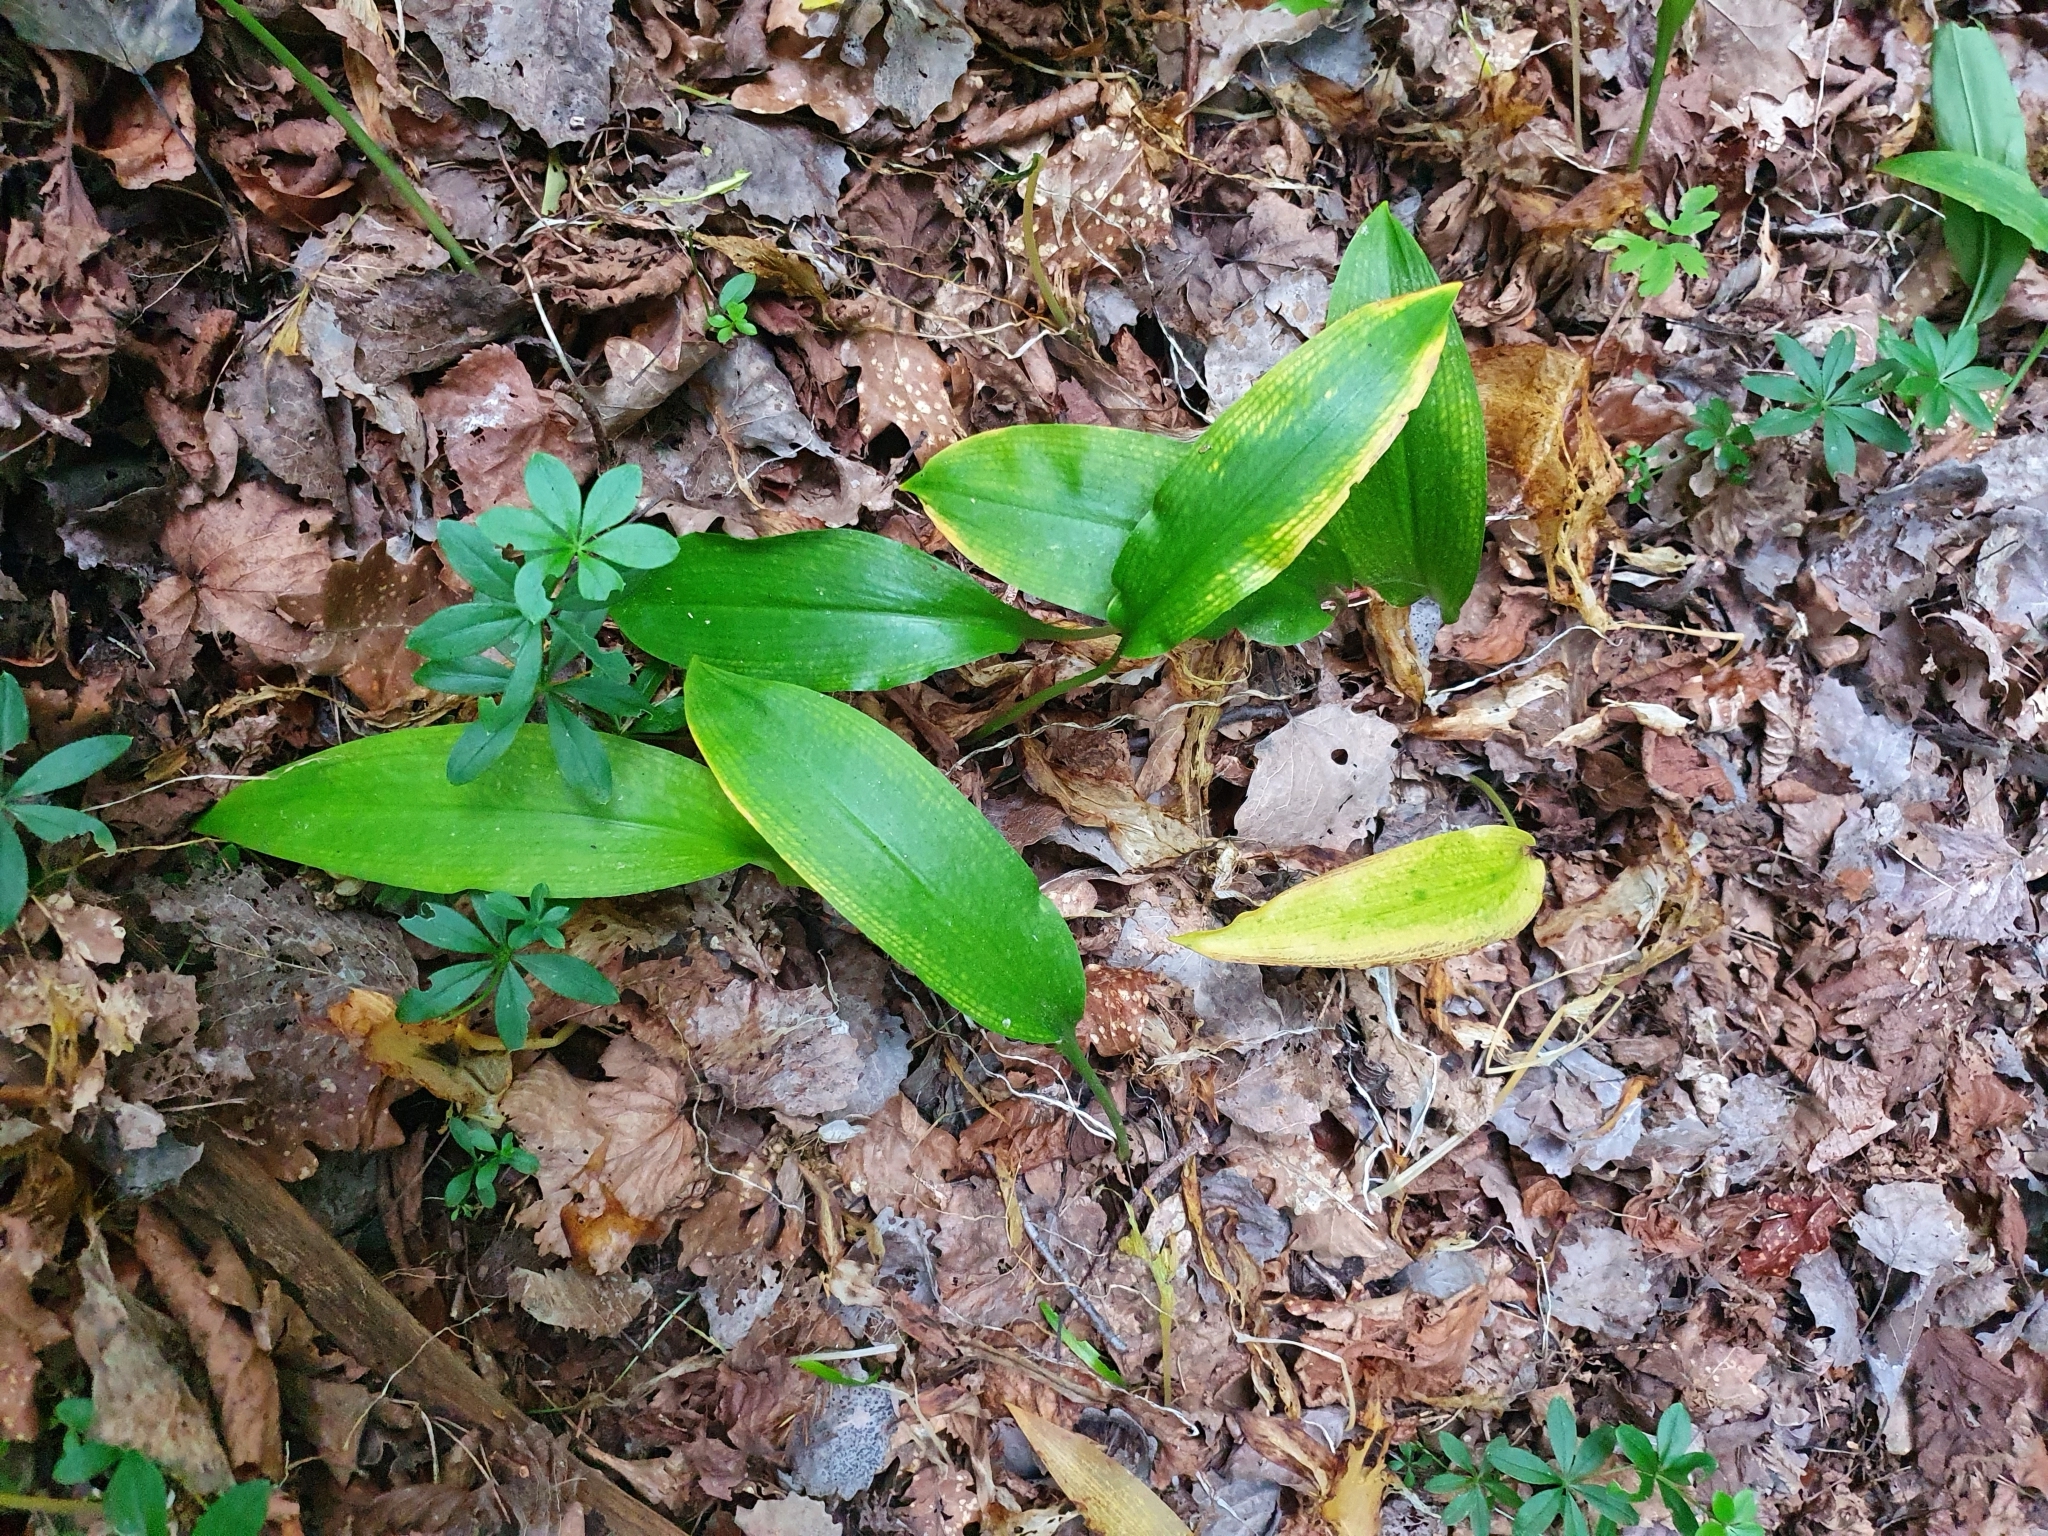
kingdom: Plantae
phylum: Tracheophyta
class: Liliopsida
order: Asparagales
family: Amaryllidaceae
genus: Allium
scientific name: Allium ursinum
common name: Ramsons
